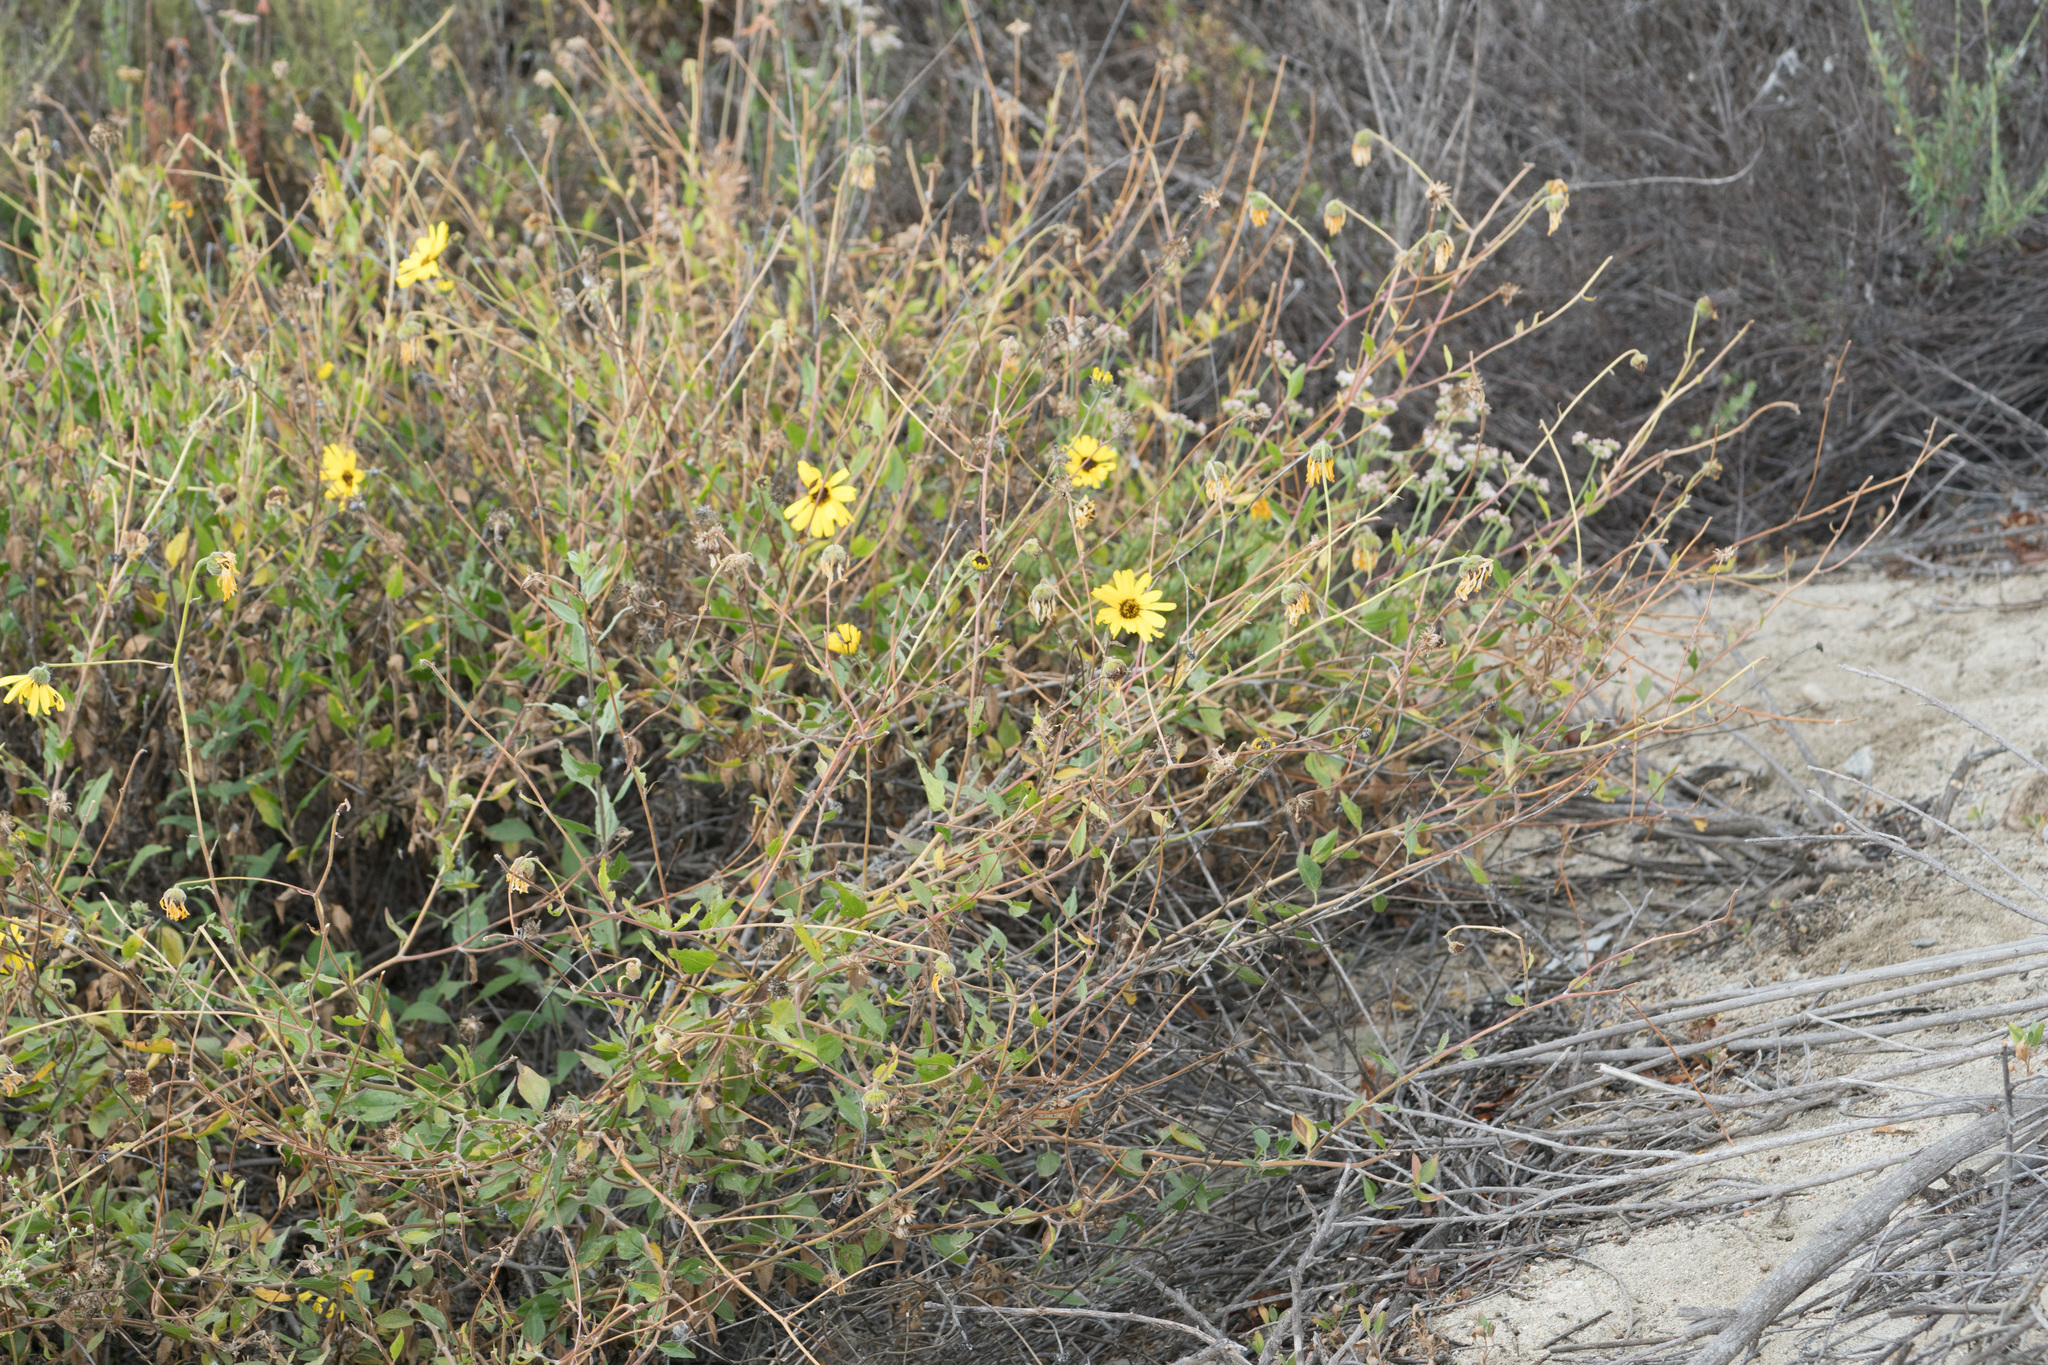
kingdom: Plantae
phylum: Tracheophyta
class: Magnoliopsida
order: Asterales
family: Asteraceae
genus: Encelia
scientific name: Encelia californica
